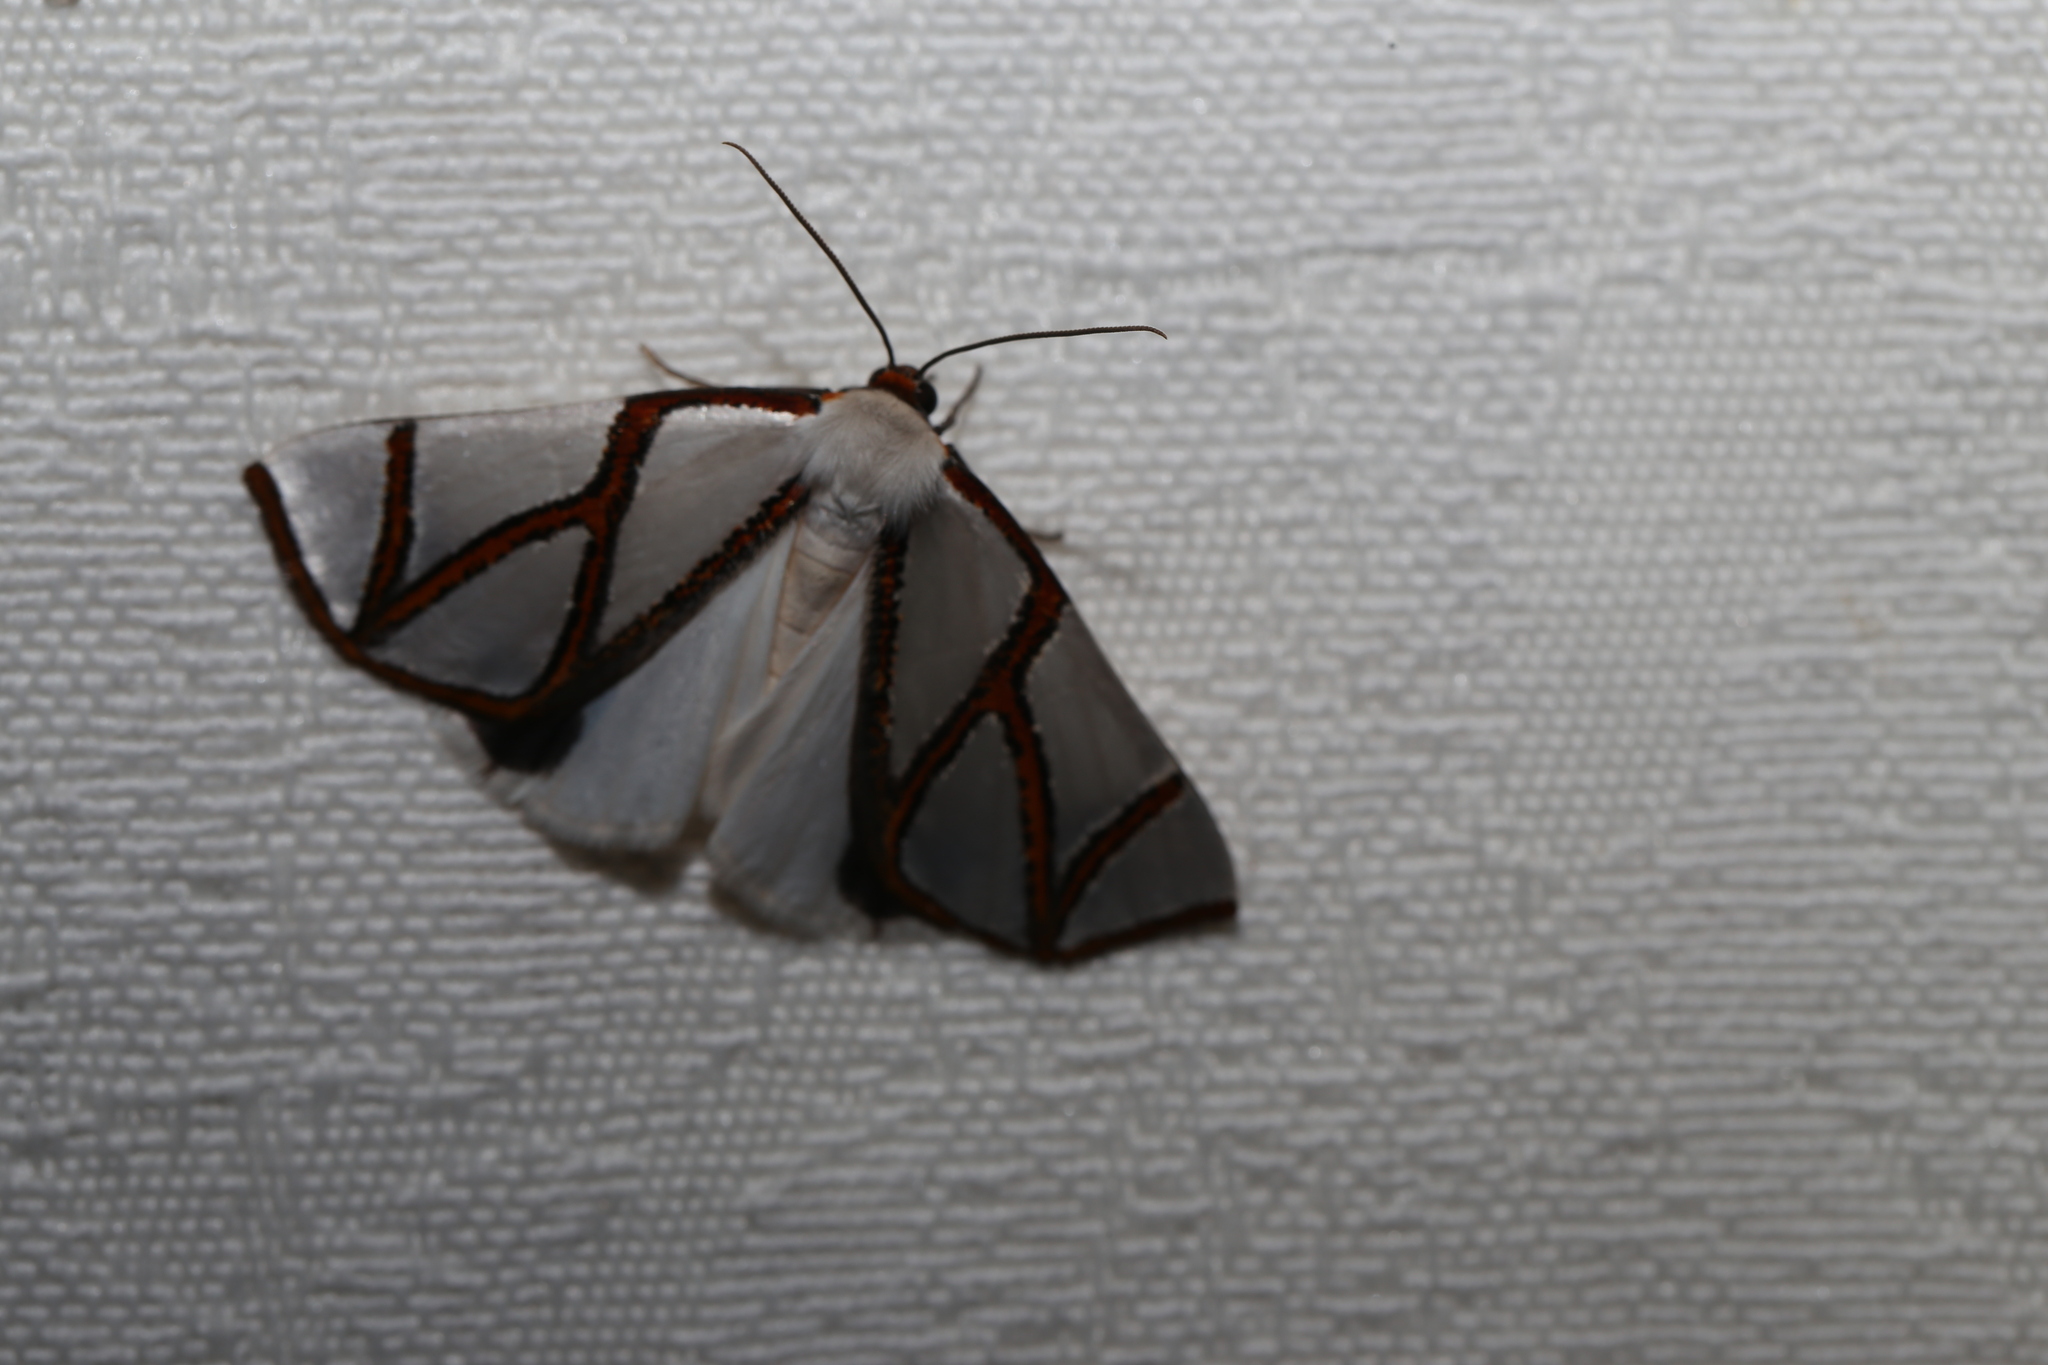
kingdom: Animalia
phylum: Arthropoda
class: Insecta
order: Lepidoptera
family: Geometridae
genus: Thalaina
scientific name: Thalaina clara
